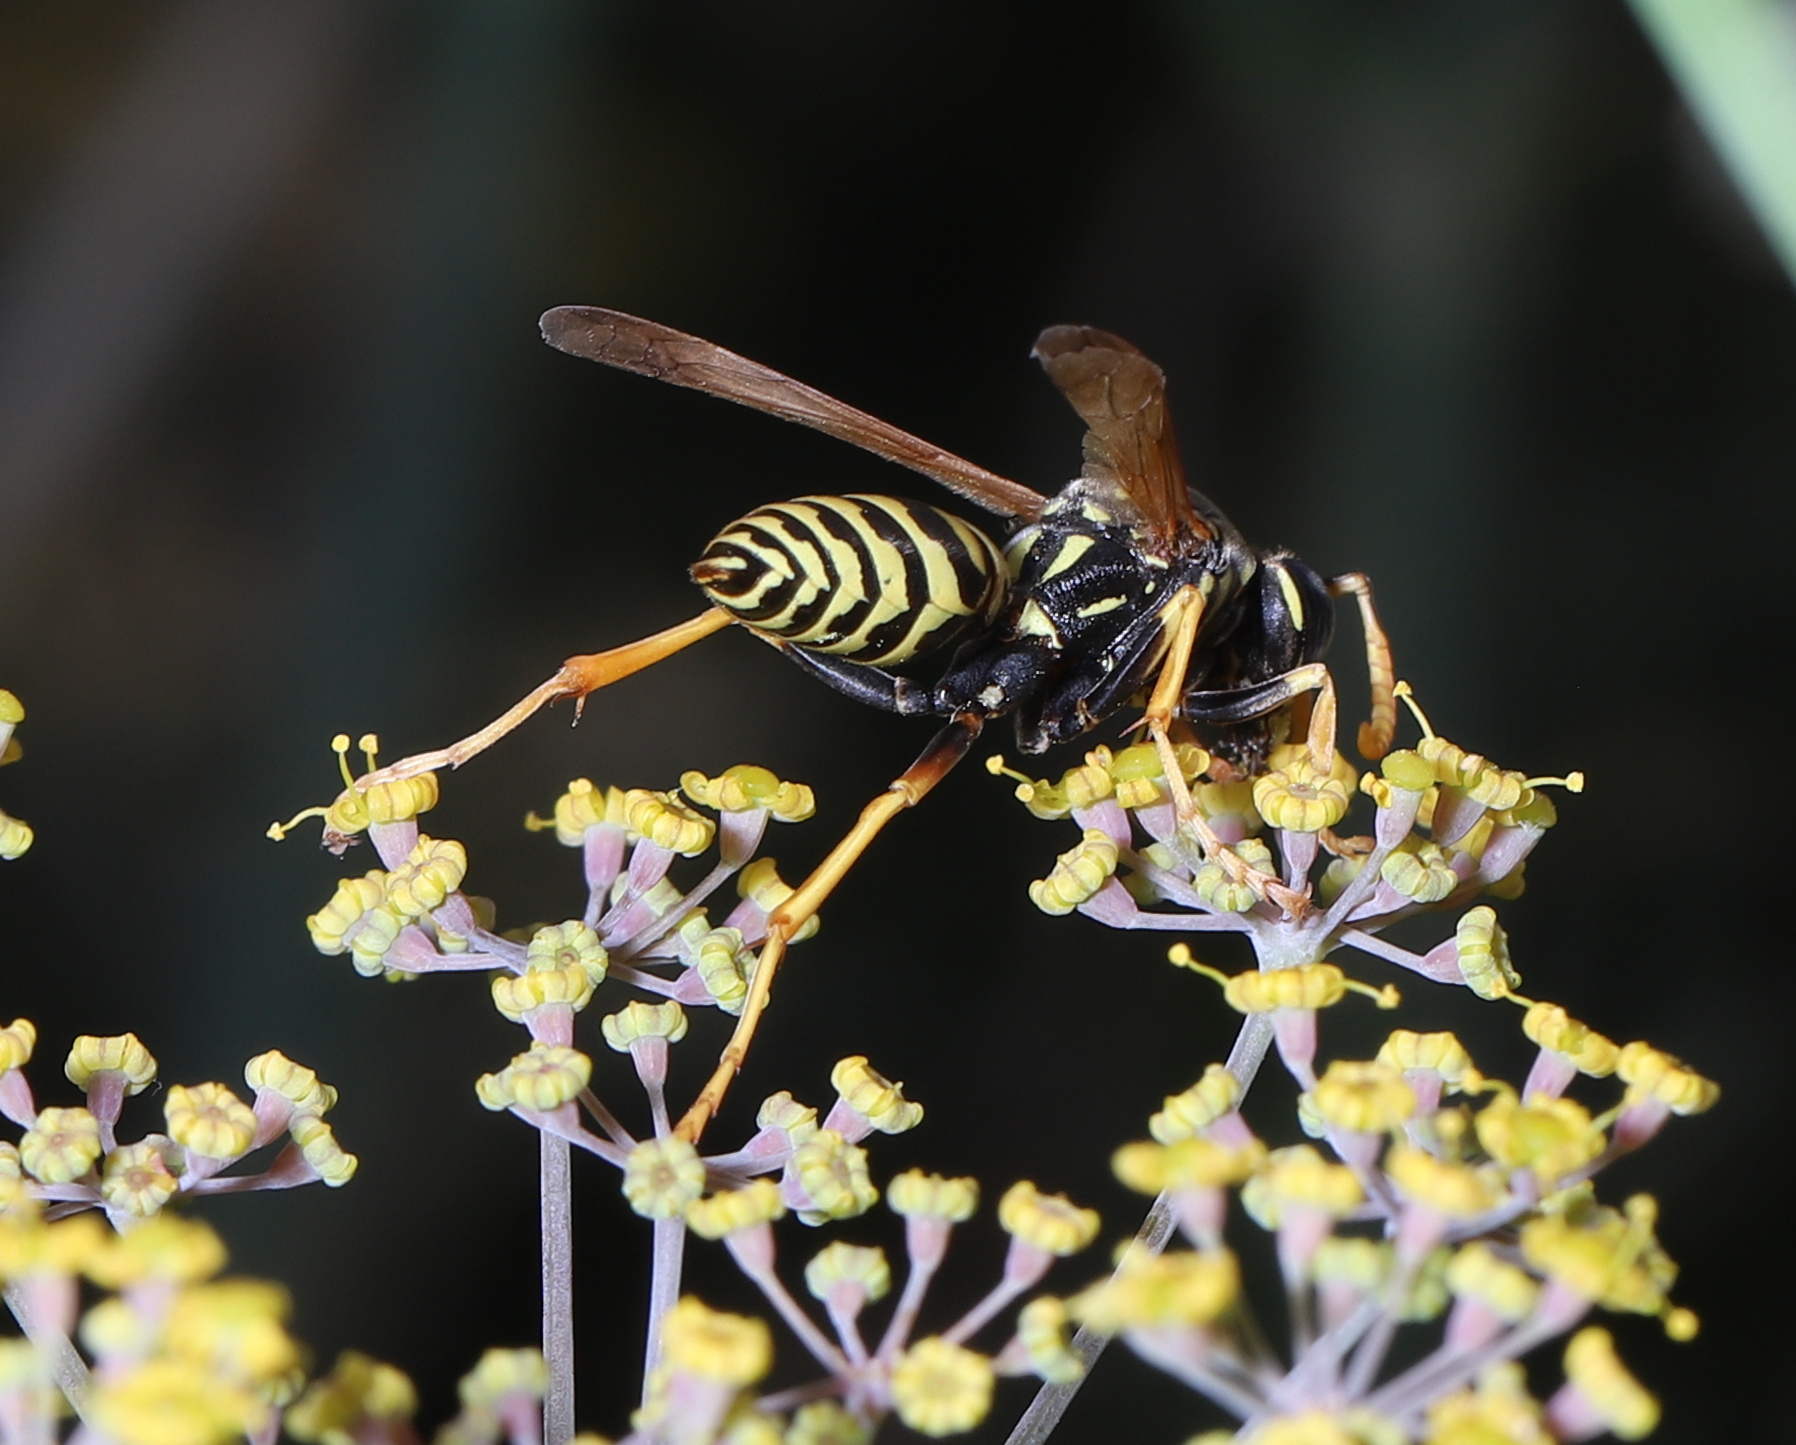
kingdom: Animalia
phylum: Arthropoda
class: Insecta
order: Hymenoptera
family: Eumenidae
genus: Polistes
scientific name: Polistes dominula
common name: Paper wasp
